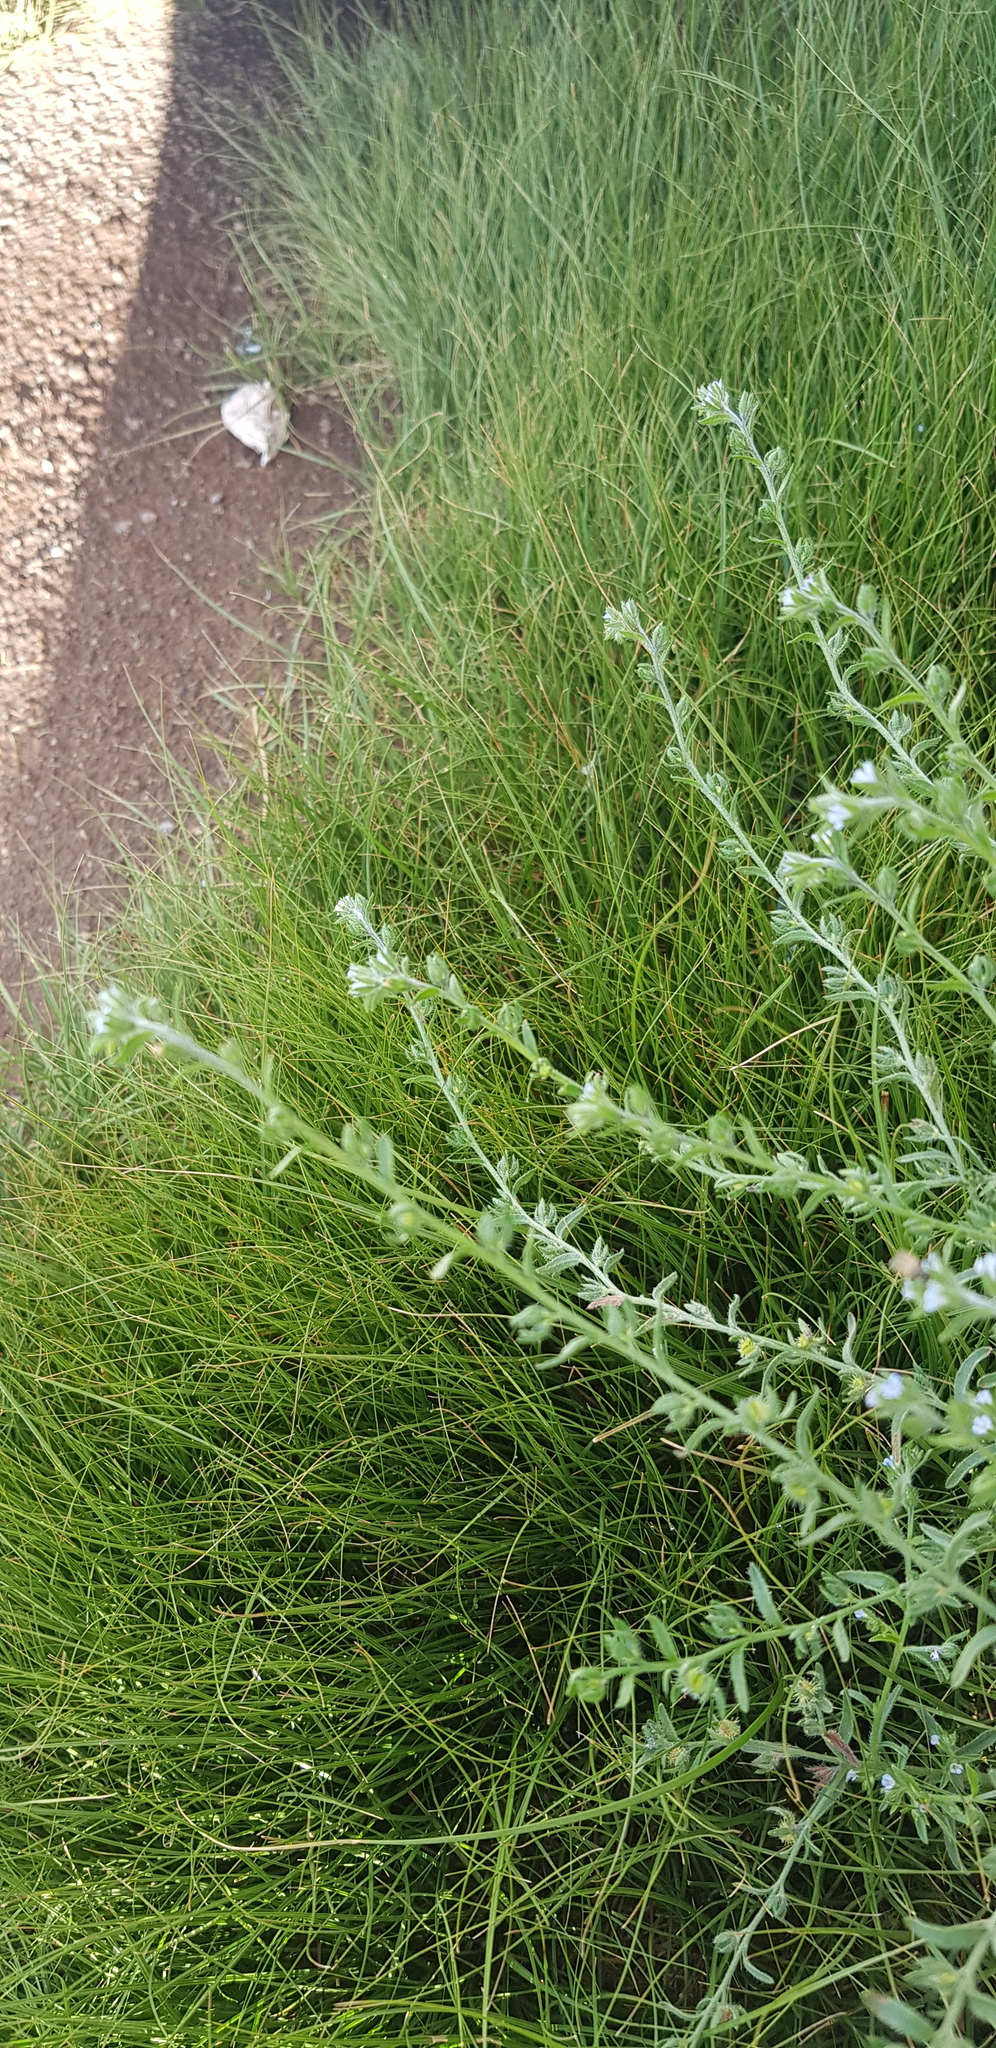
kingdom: Plantae
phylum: Tracheophyta
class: Magnoliopsida
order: Boraginales
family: Boraginaceae
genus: Lappula
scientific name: Lappula squarrosa
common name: European stickseed
